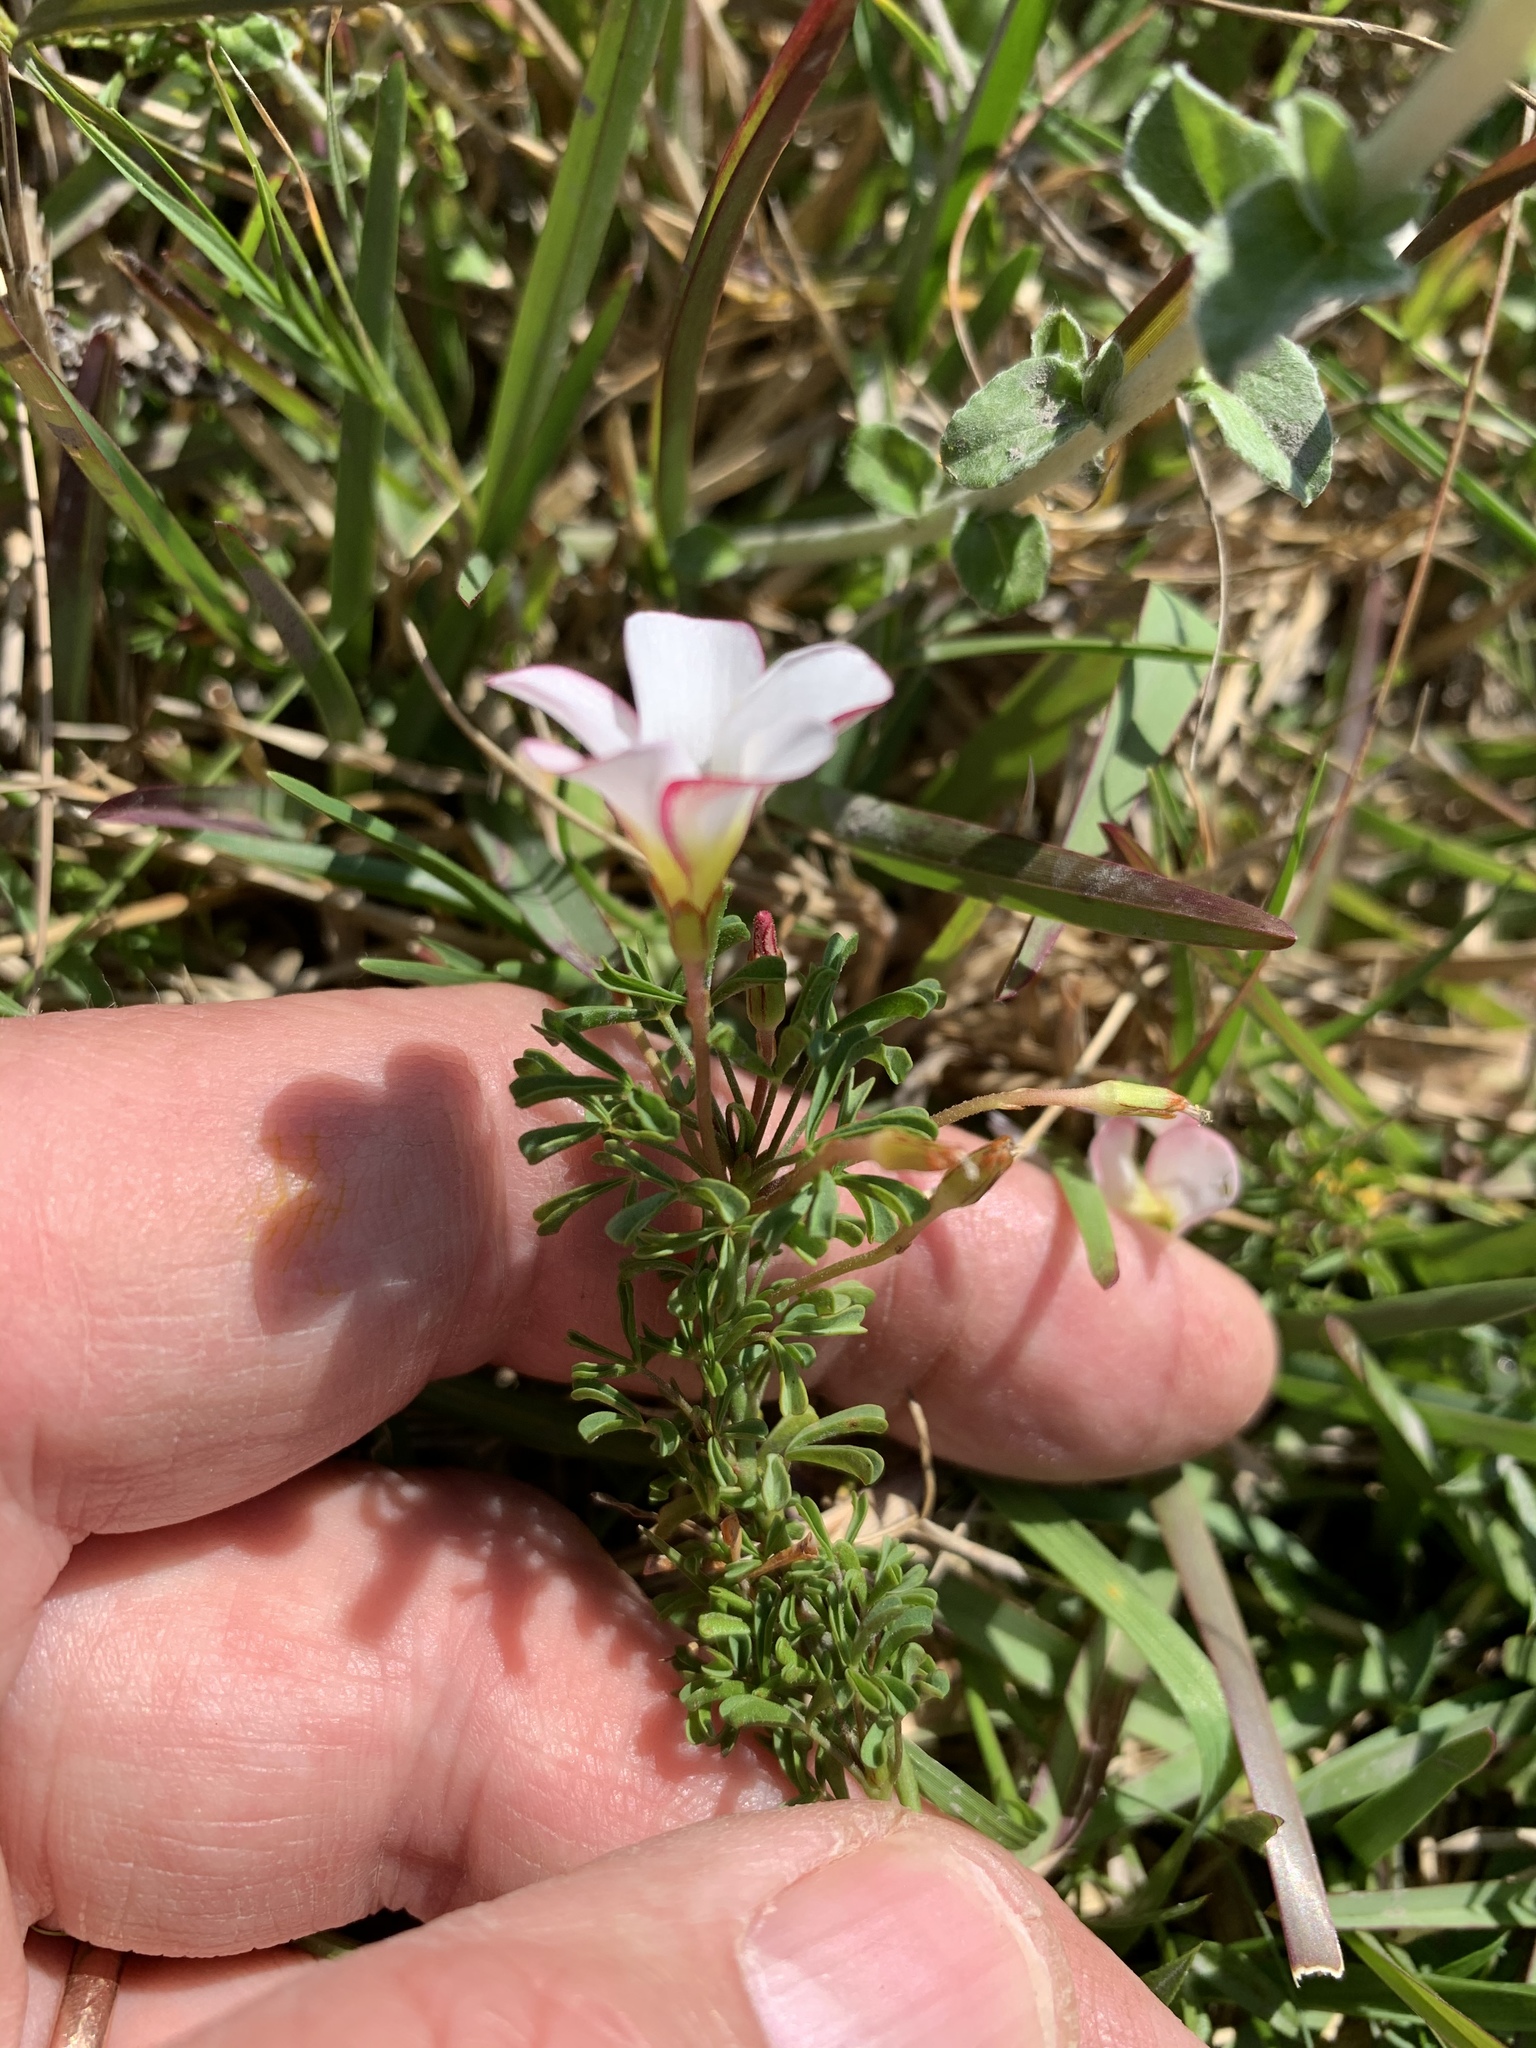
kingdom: Plantae
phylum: Tracheophyta
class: Magnoliopsida
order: Oxalidales
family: Oxalidaceae
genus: Oxalis
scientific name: Oxalis multicaulis
